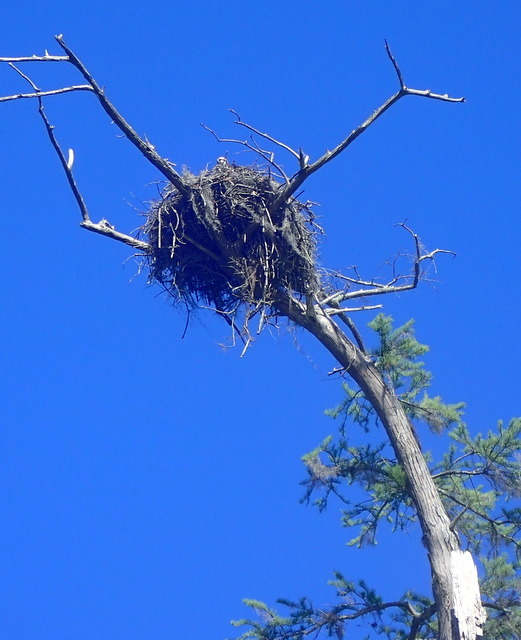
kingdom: Animalia
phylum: Chordata
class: Aves
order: Accipitriformes
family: Pandionidae
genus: Pandion
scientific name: Pandion haliaetus
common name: Osprey
